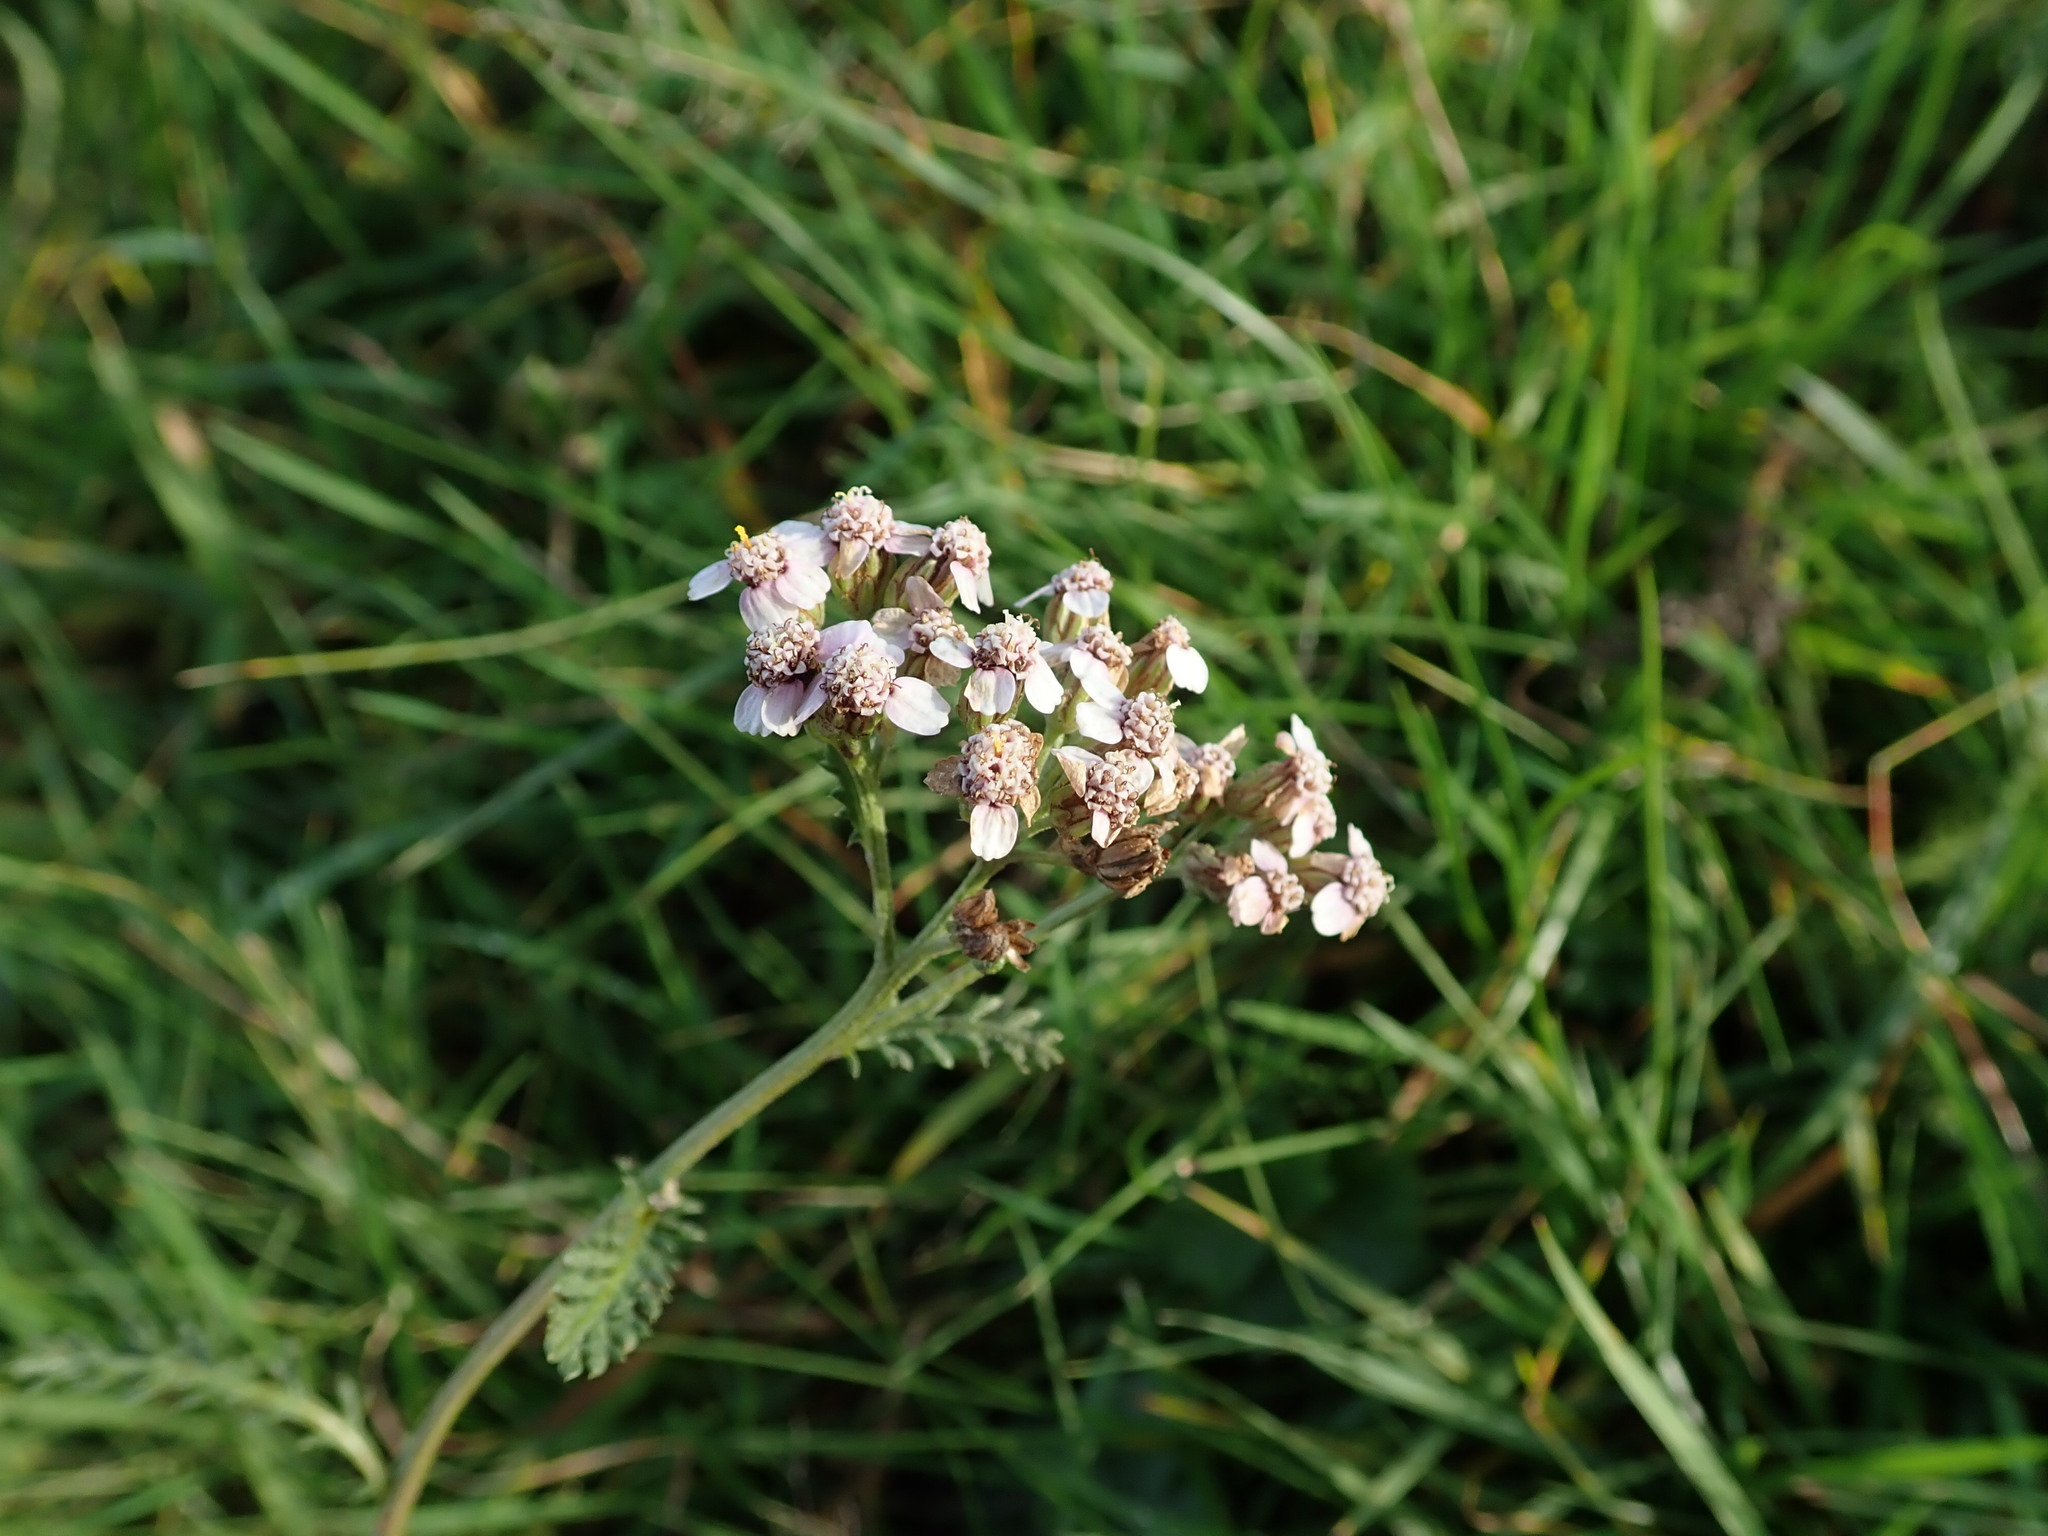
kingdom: Plantae
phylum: Tracheophyta
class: Magnoliopsida
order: Asterales
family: Asteraceae
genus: Achillea
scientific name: Achillea millefolium
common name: Yarrow
